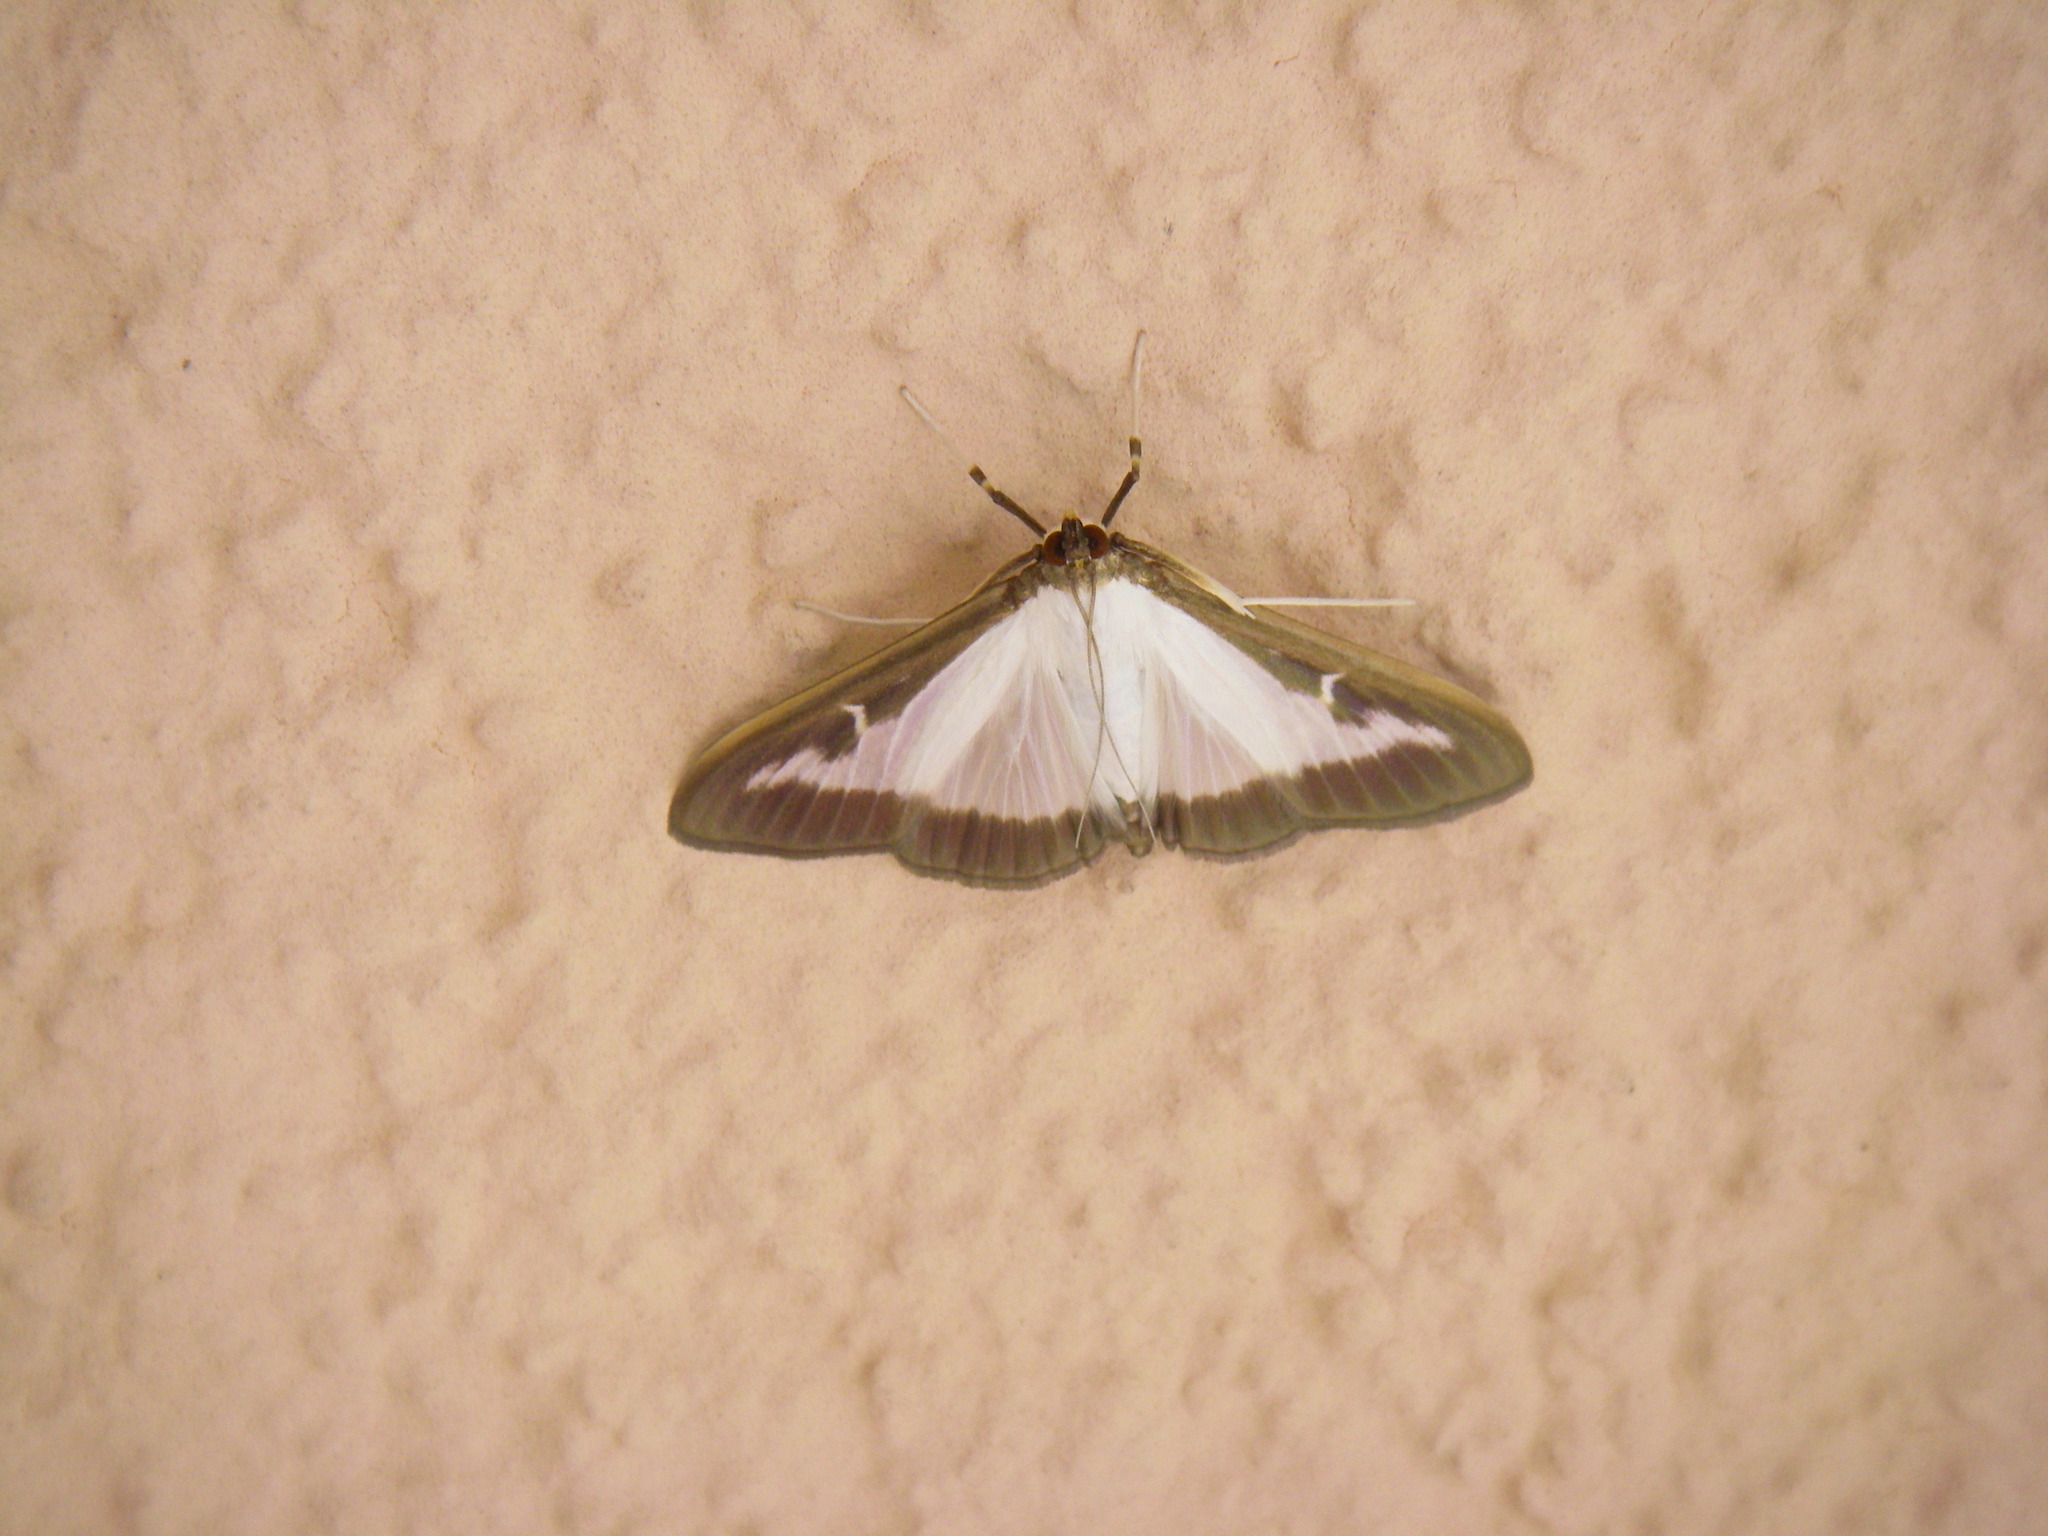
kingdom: Animalia
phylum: Arthropoda
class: Insecta
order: Lepidoptera
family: Crambidae
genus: Cydalima
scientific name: Cydalima perspectalis
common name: Box tree moth
